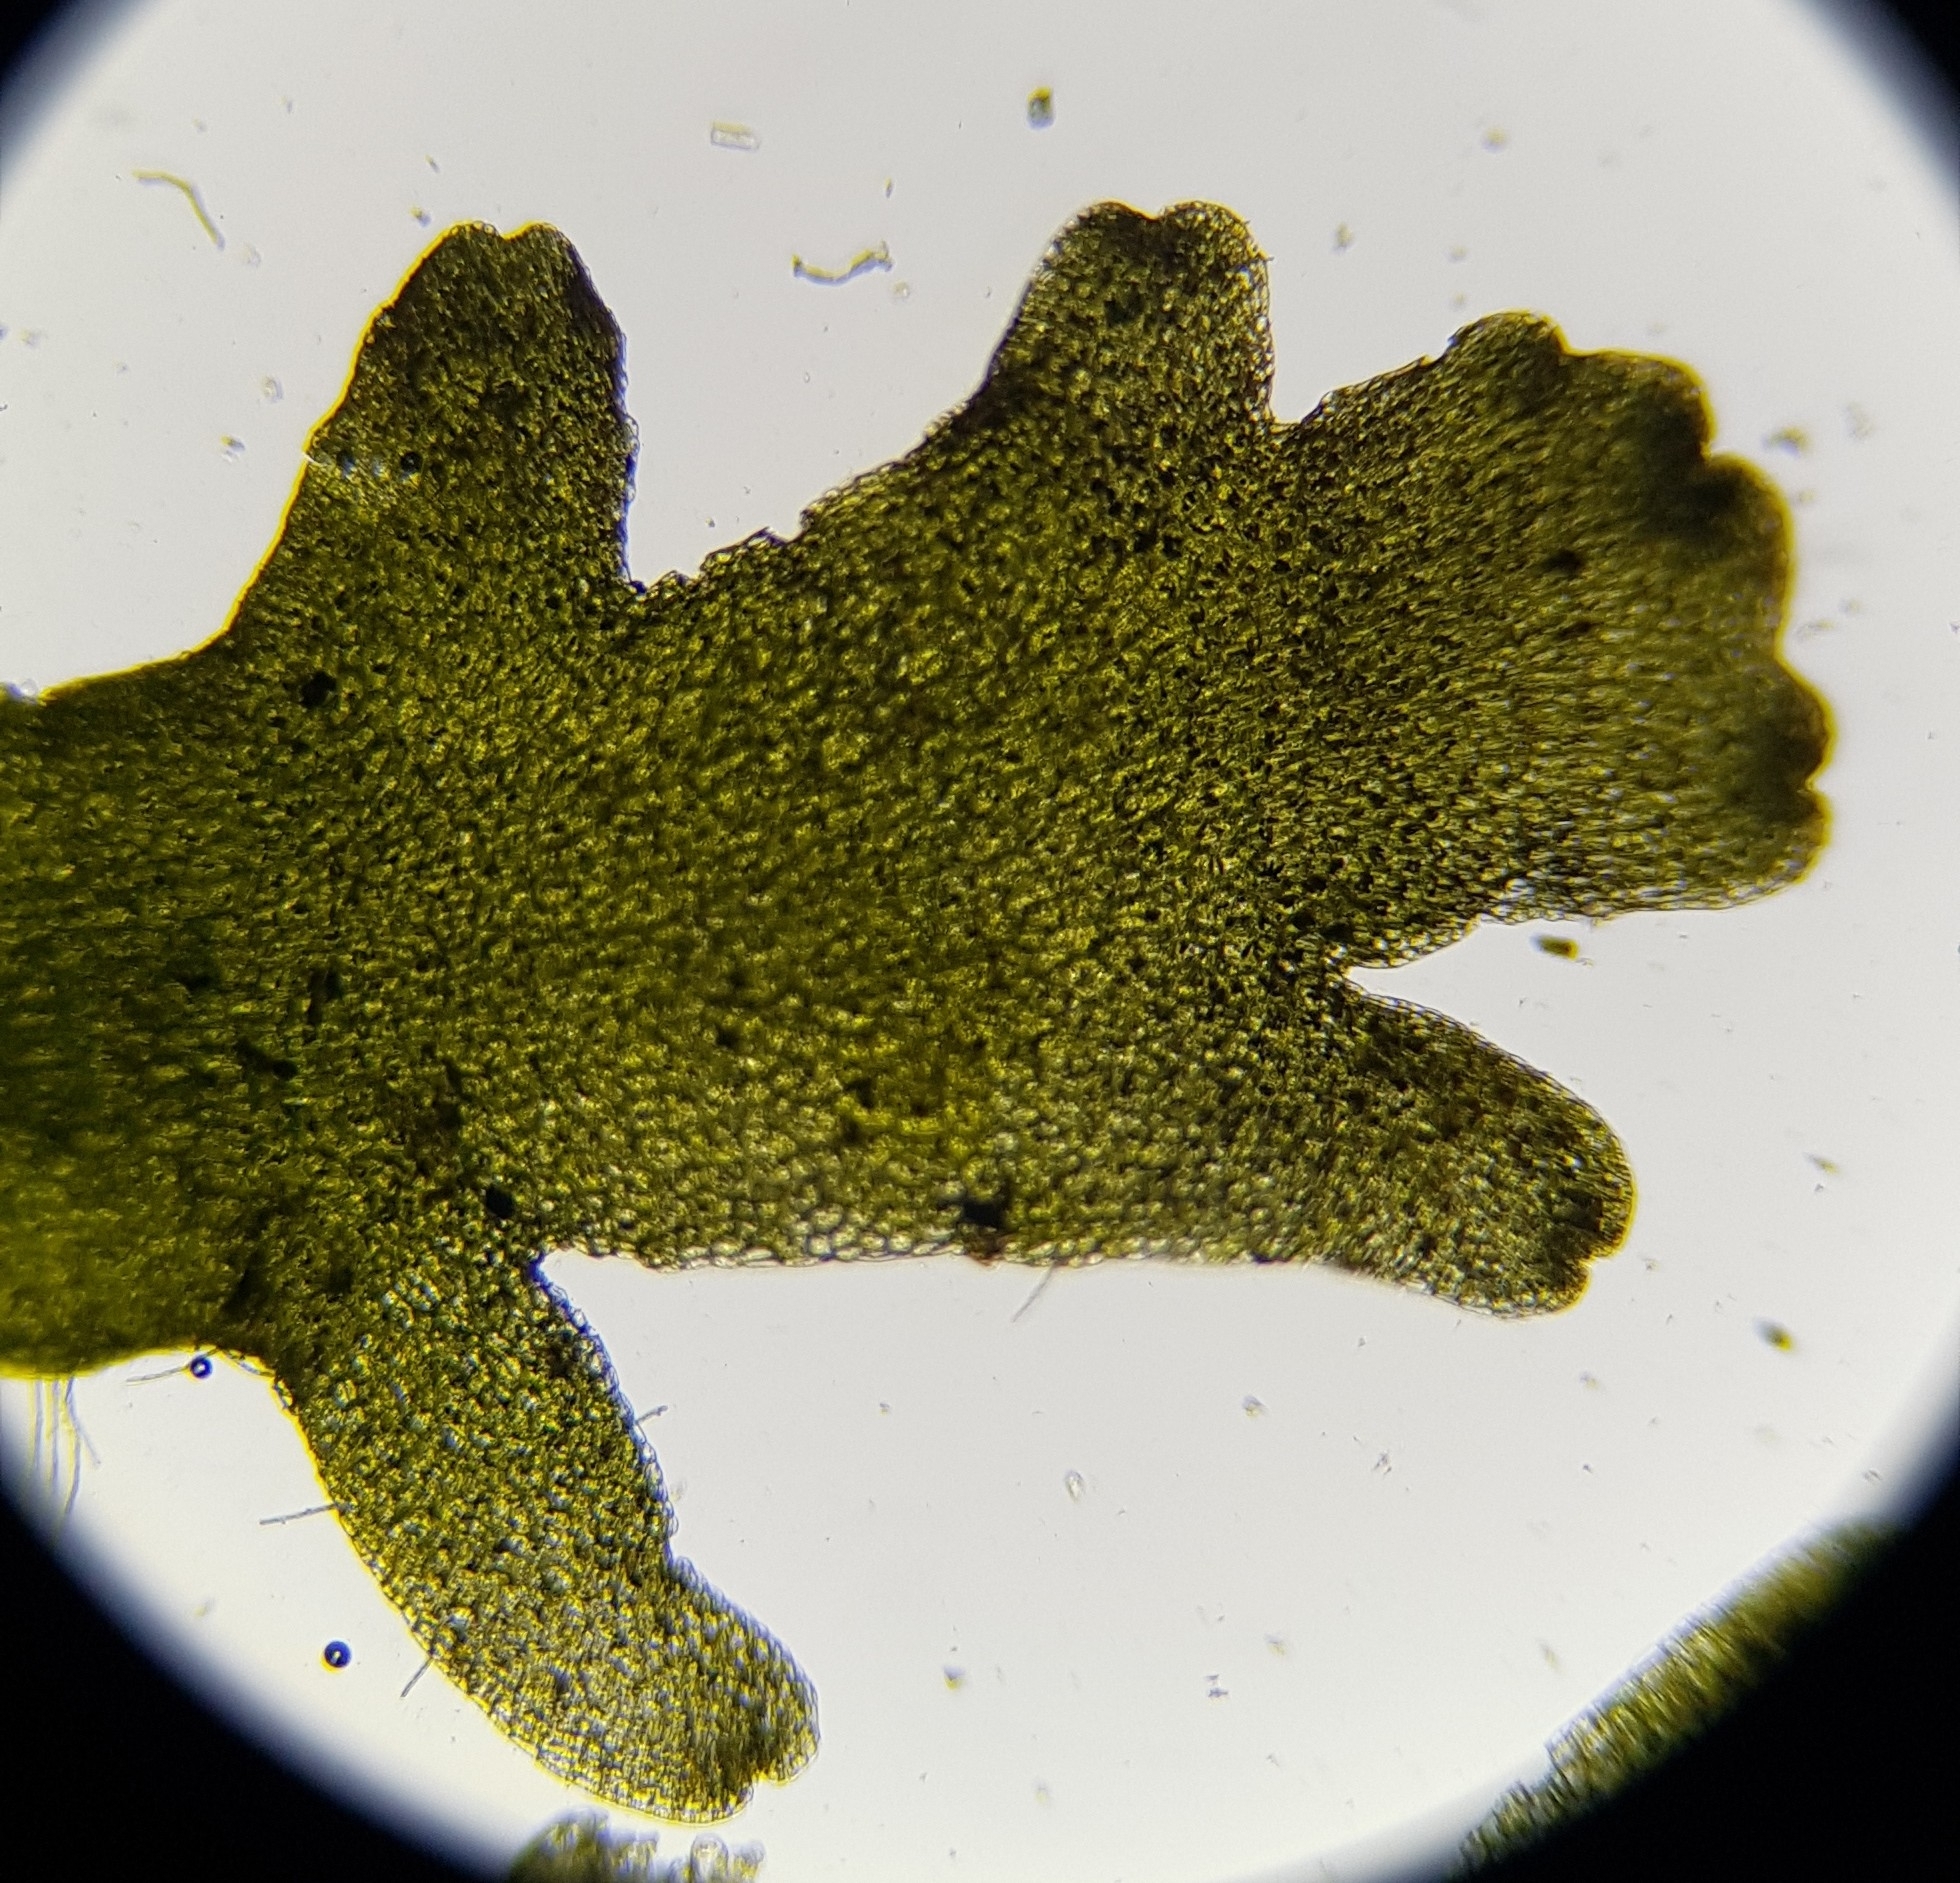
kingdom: Plantae
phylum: Marchantiophyta
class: Jungermanniopsida
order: Metzgeriales
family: Aneuraceae
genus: Riccardia
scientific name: Riccardia multifida
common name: Delicate germanderwort
